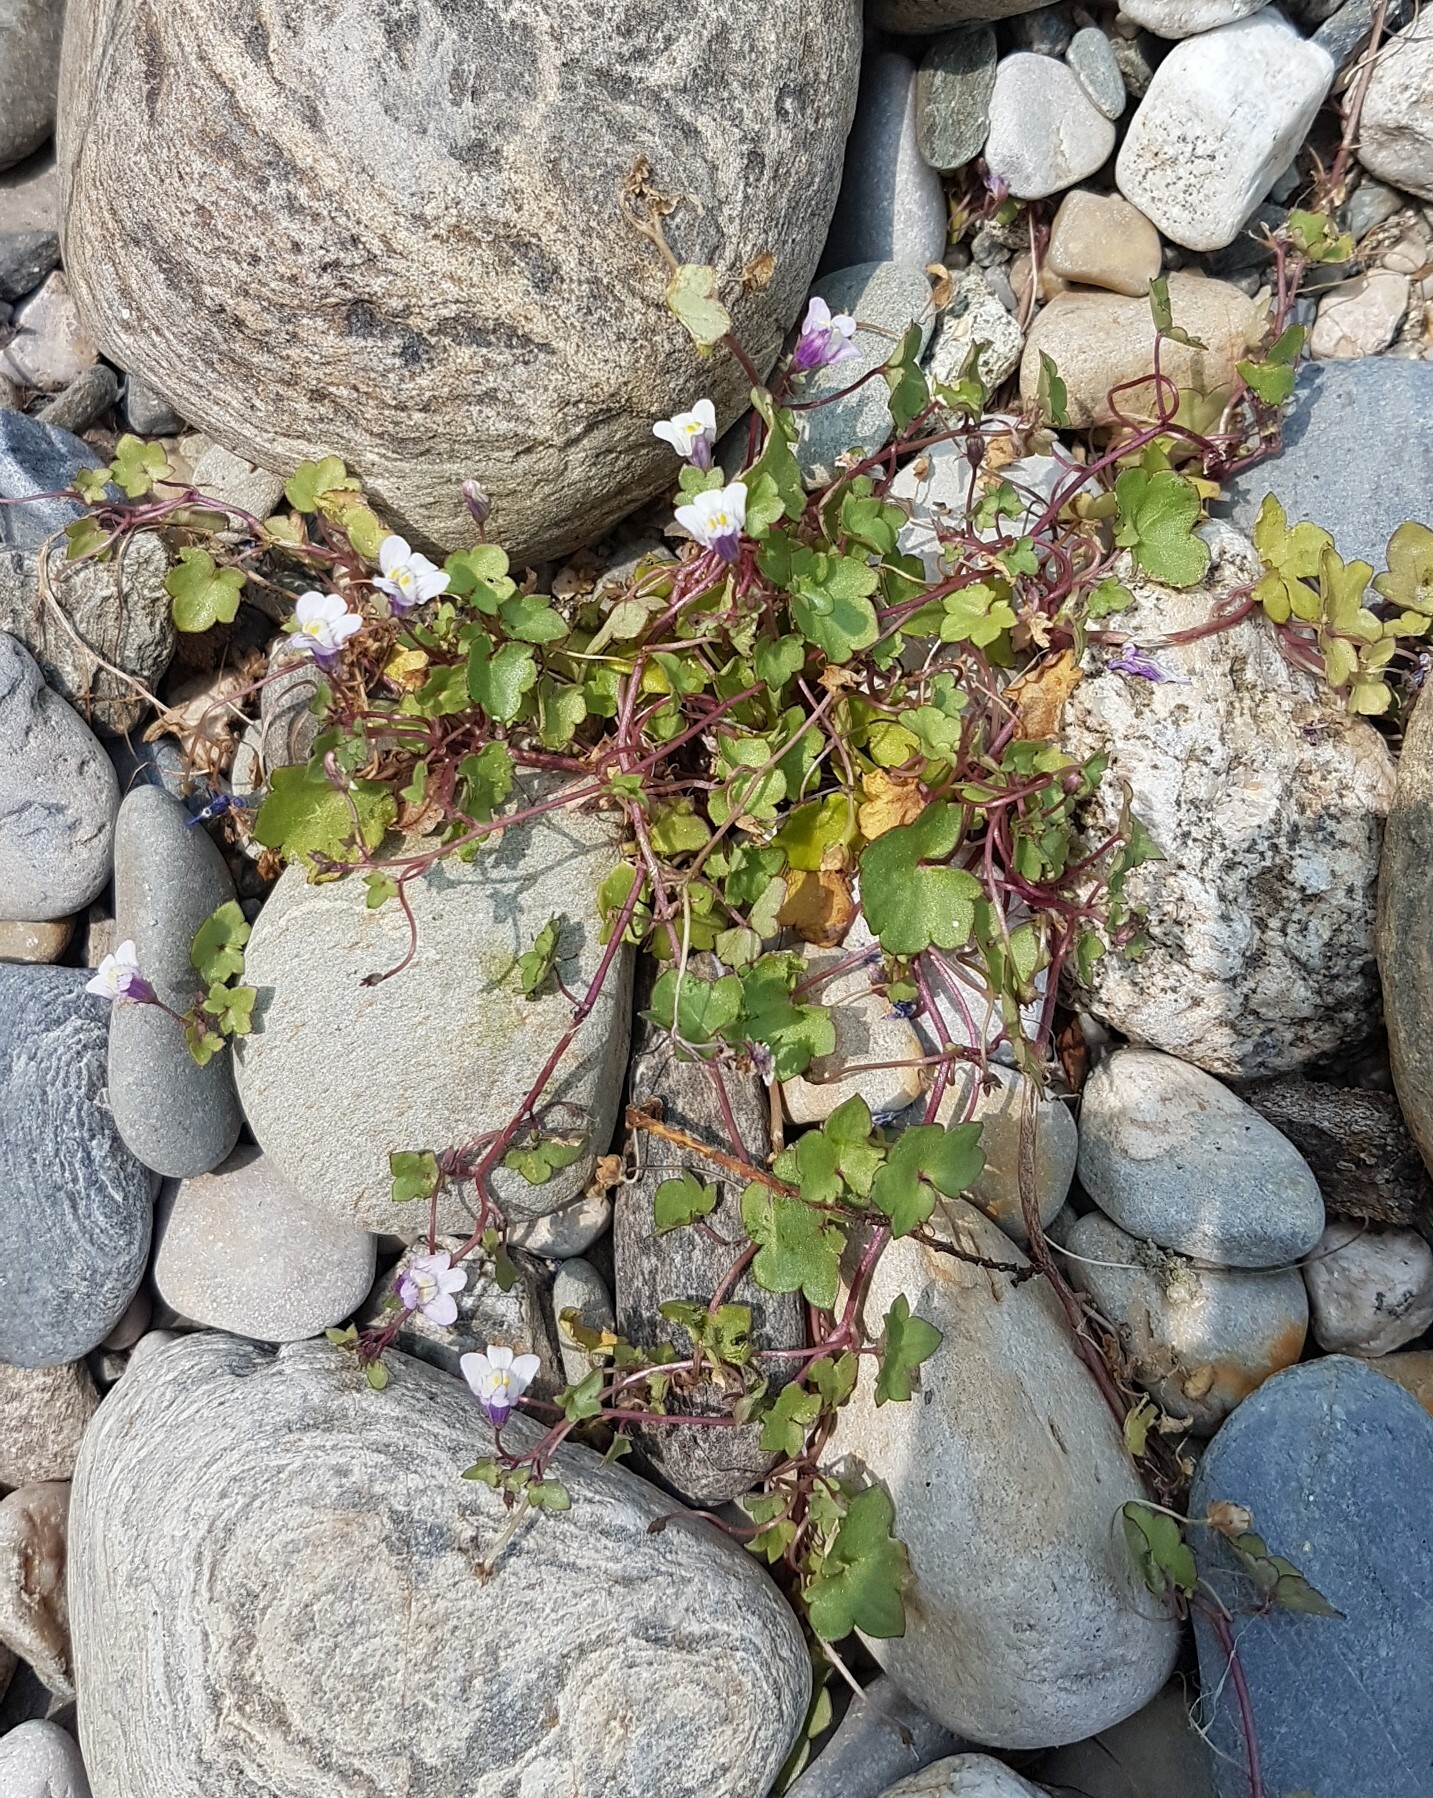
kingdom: Plantae
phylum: Tracheophyta
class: Magnoliopsida
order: Lamiales
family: Plantaginaceae
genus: Cymbalaria
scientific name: Cymbalaria muralis
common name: Ivy-leaved toadflax
